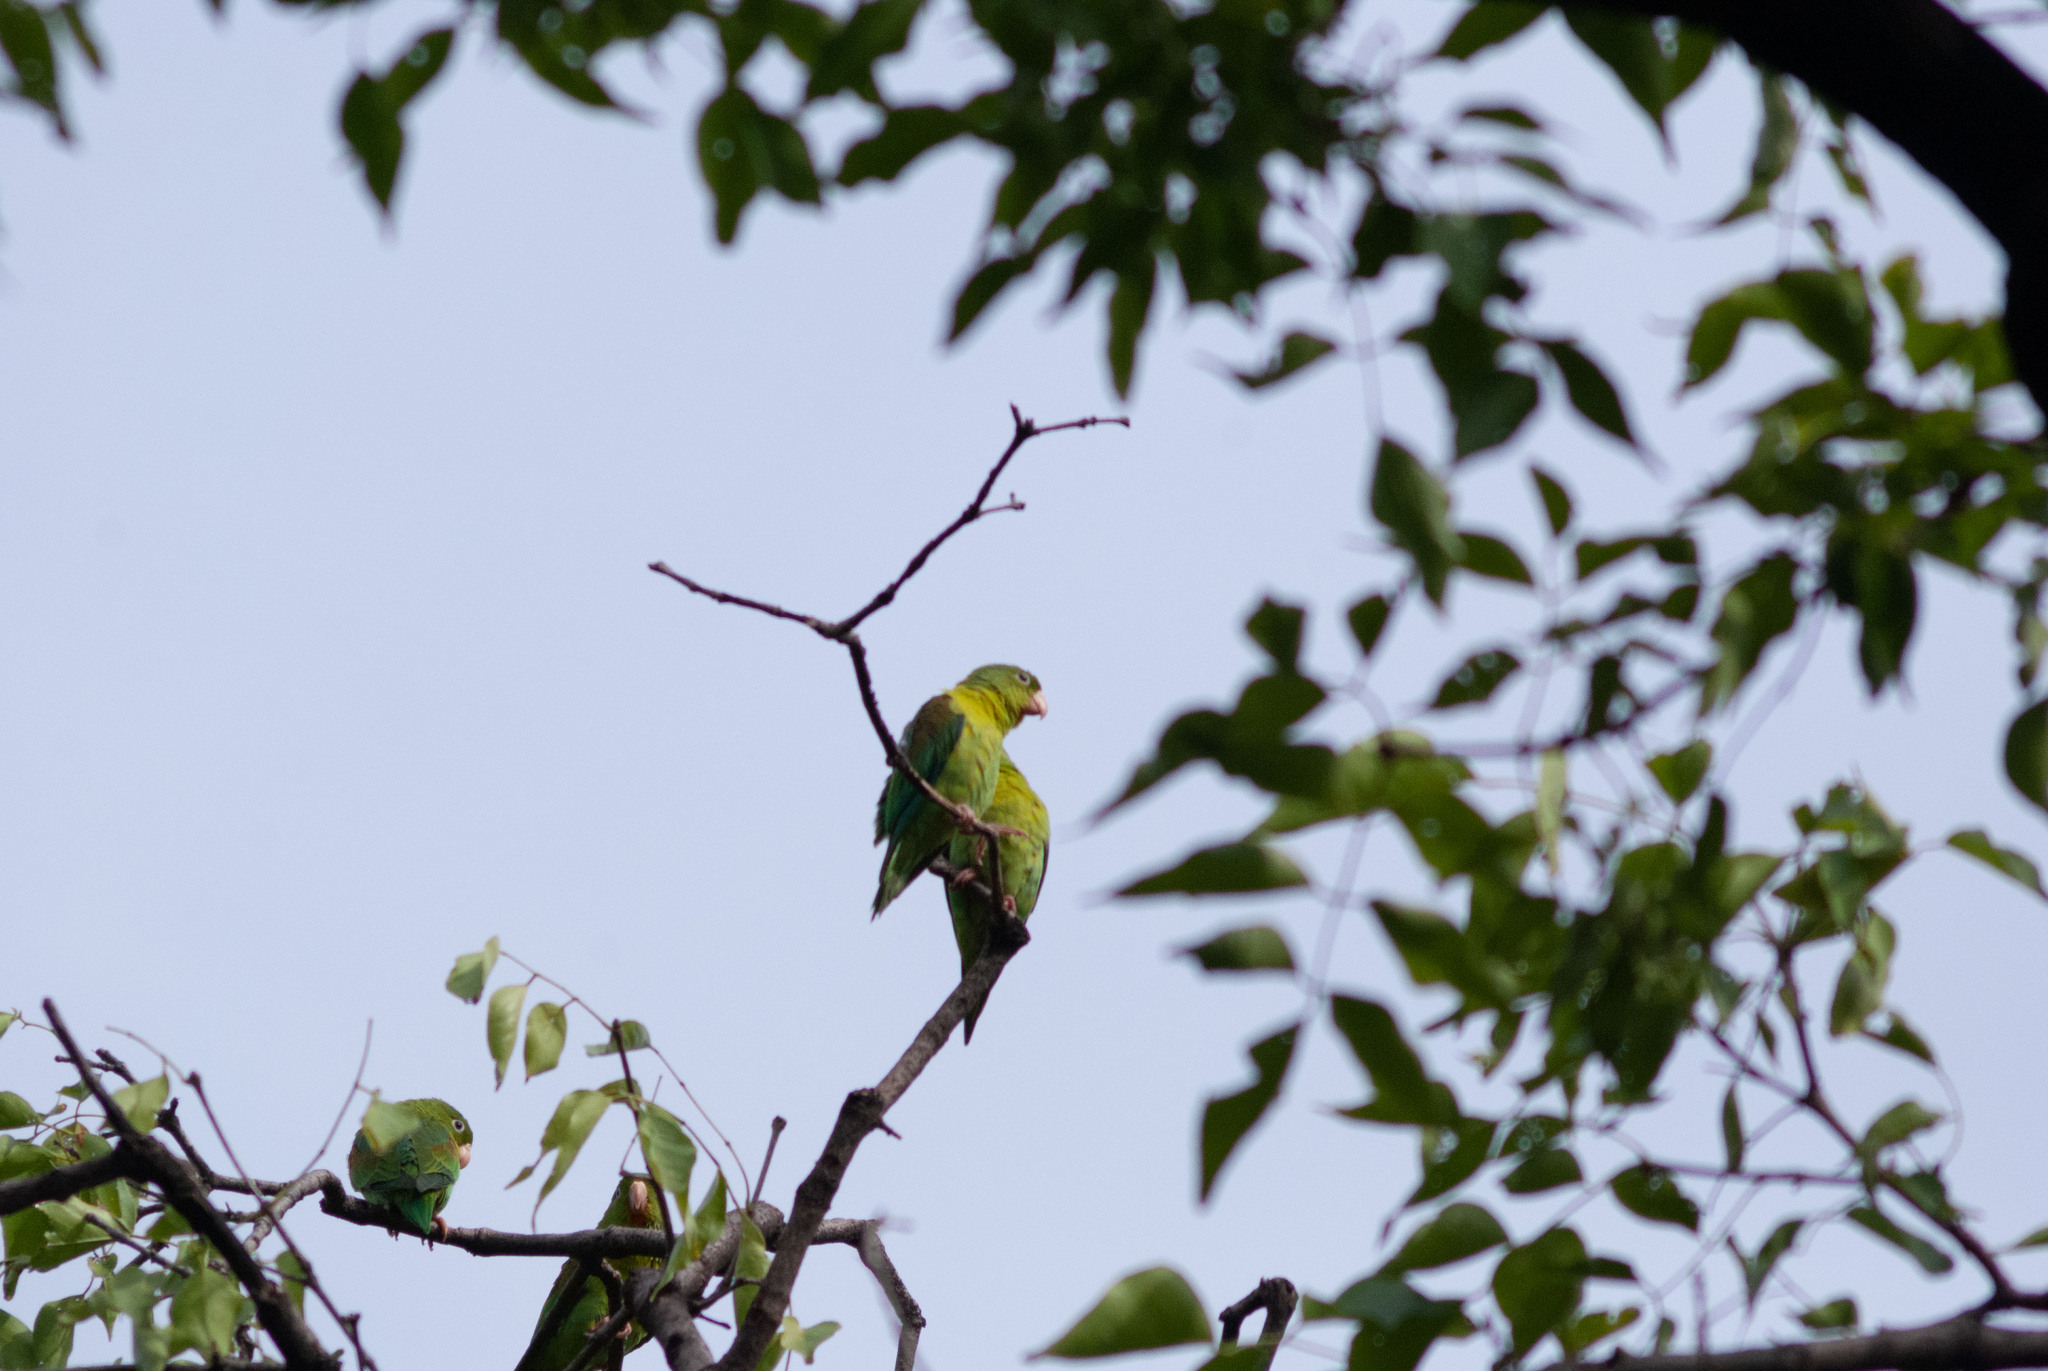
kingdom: Animalia
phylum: Chordata
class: Aves
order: Psittaciformes
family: Psittacidae
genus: Brotogeris
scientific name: Brotogeris jugularis
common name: Orange-chinned parakeet
